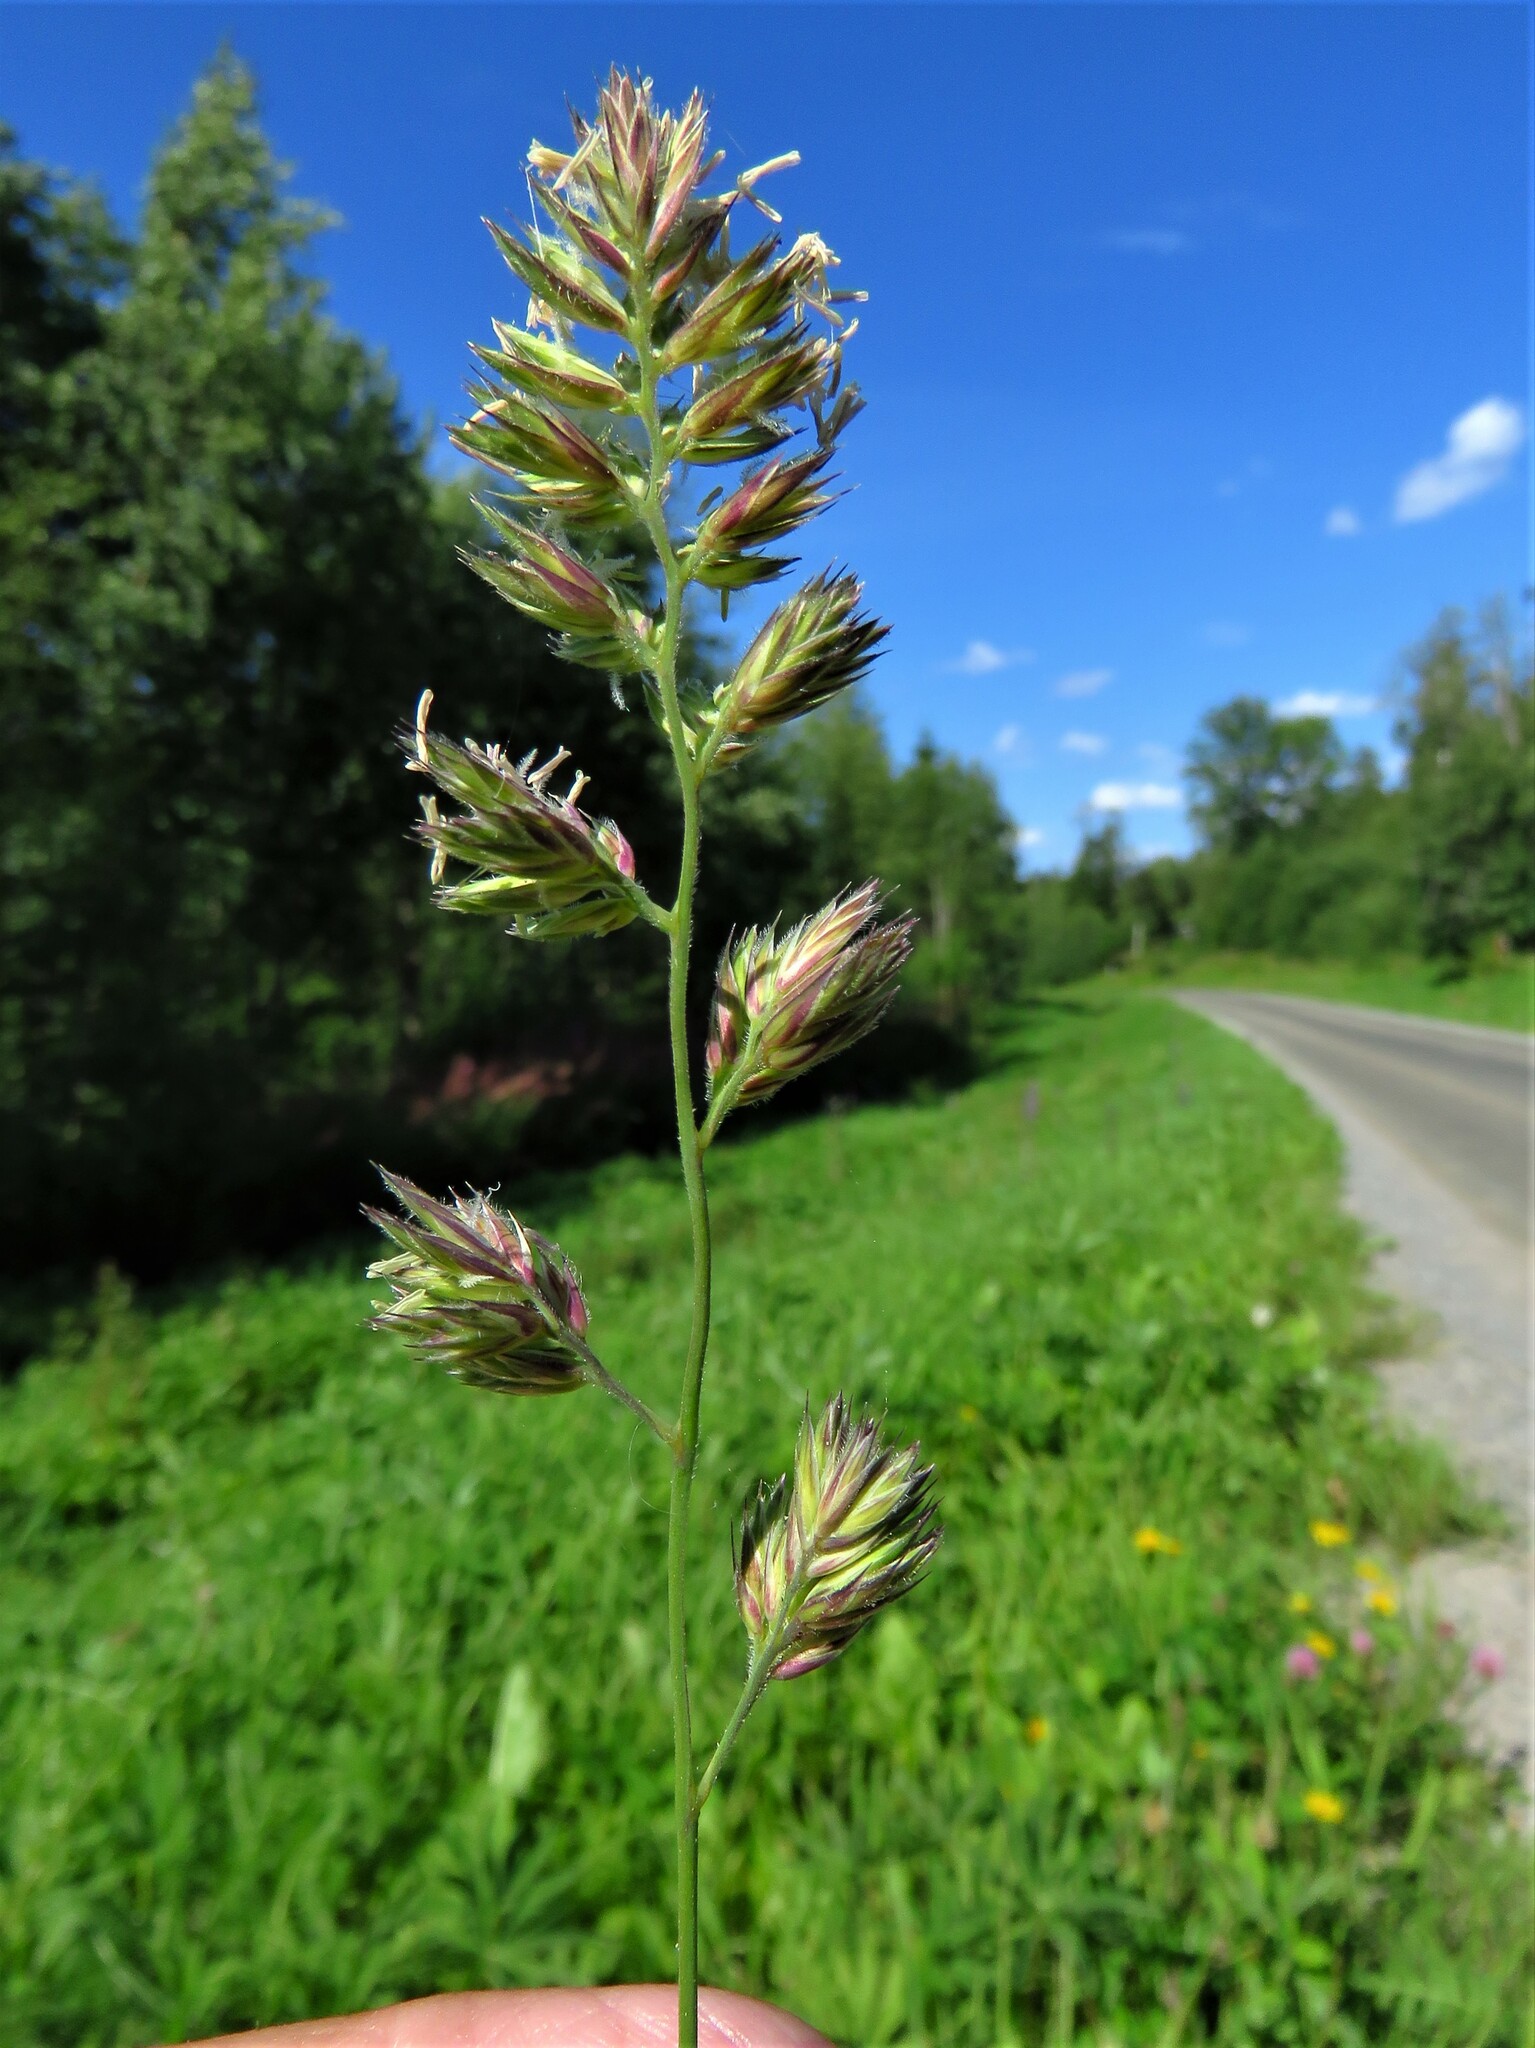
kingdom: Plantae
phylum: Tracheophyta
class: Liliopsida
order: Poales
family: Poaceae
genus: Dactylis
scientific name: Dactylis glomerata
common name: Orchardgrass
